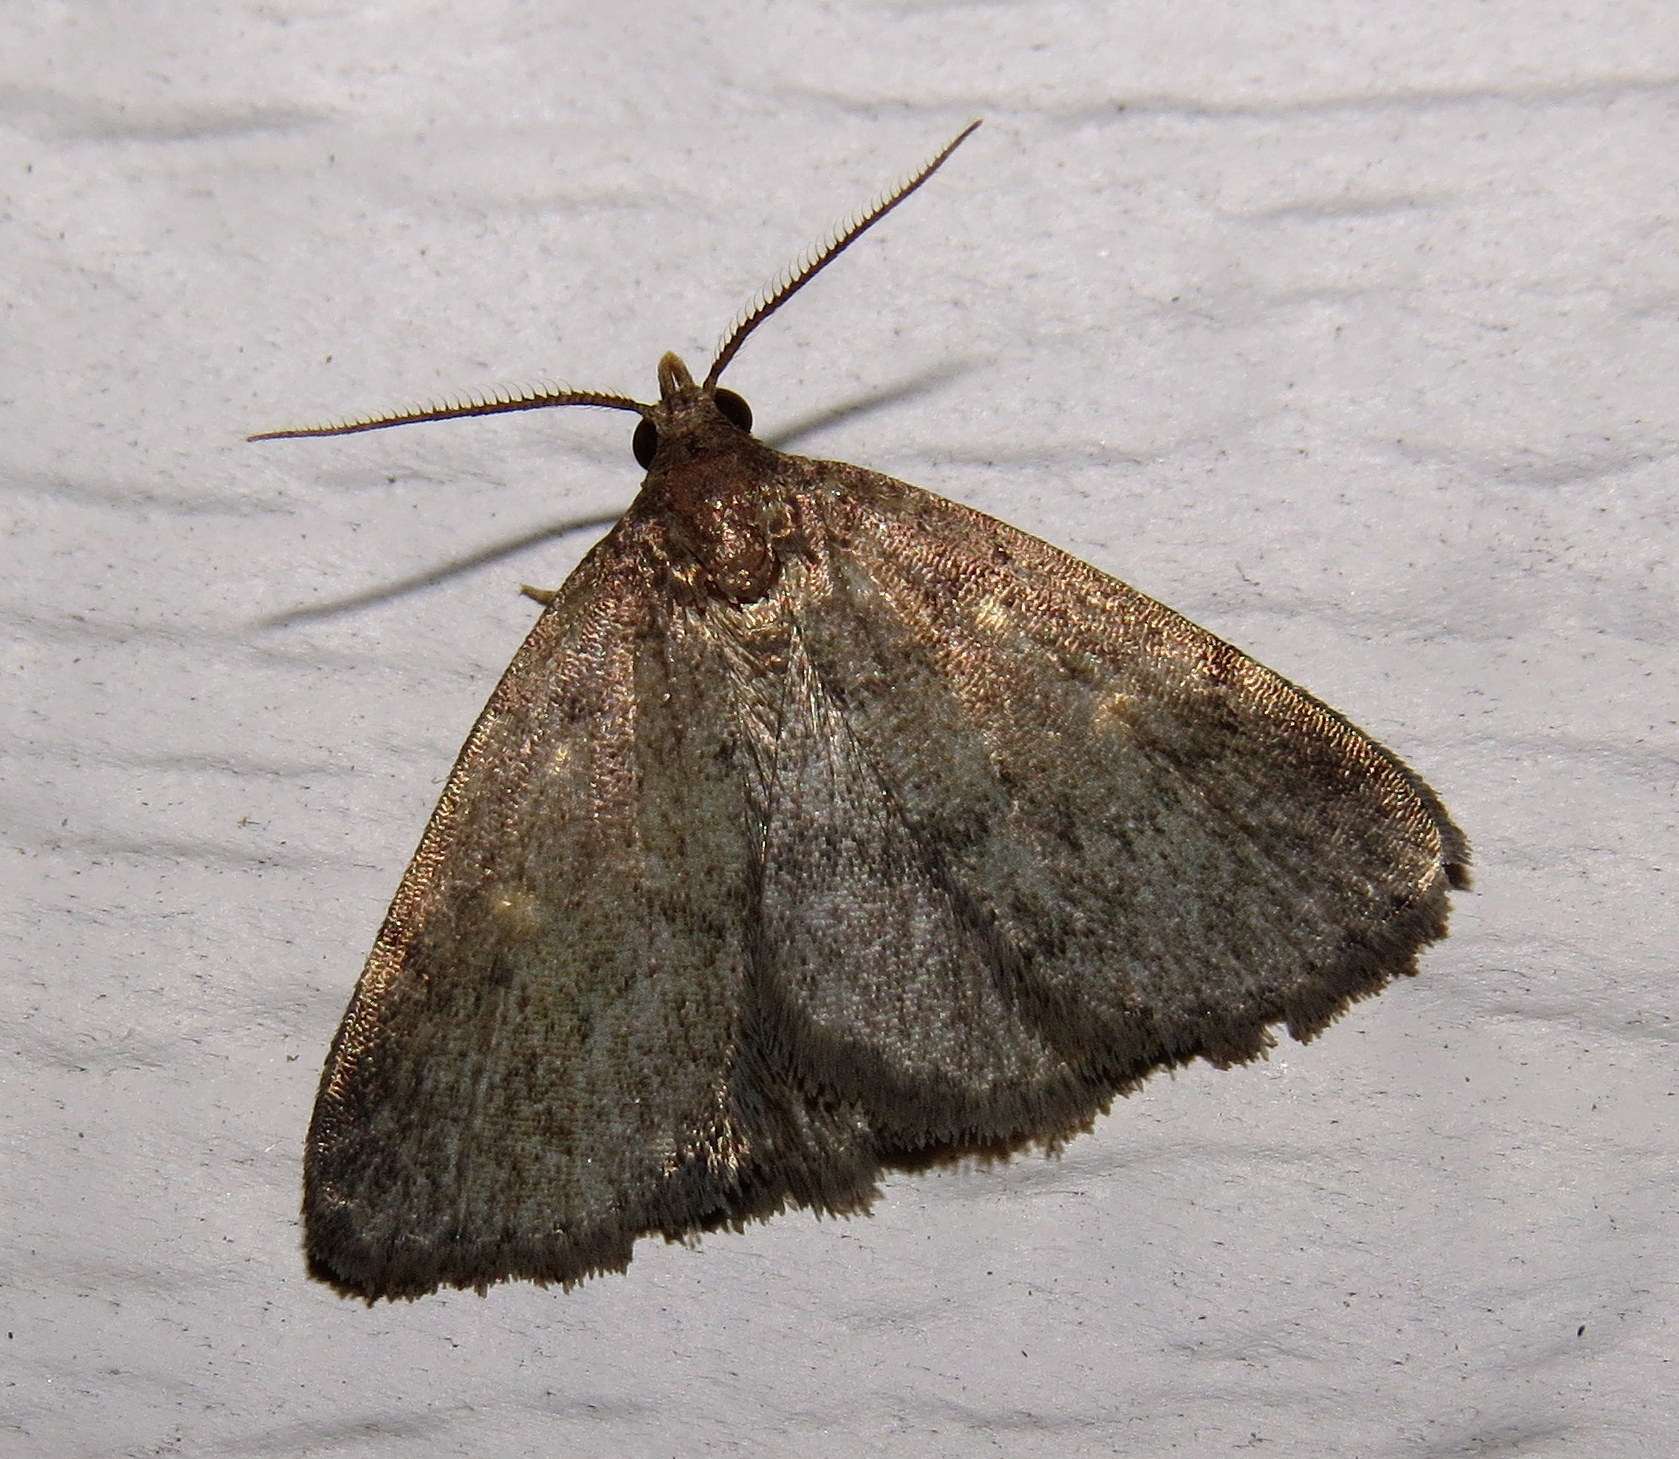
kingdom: Animalia
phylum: Arthropoda
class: Insecta
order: Lepidoptera
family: Erebidae
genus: Idia
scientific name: Idia rotundalis
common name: Rotund idia moth
